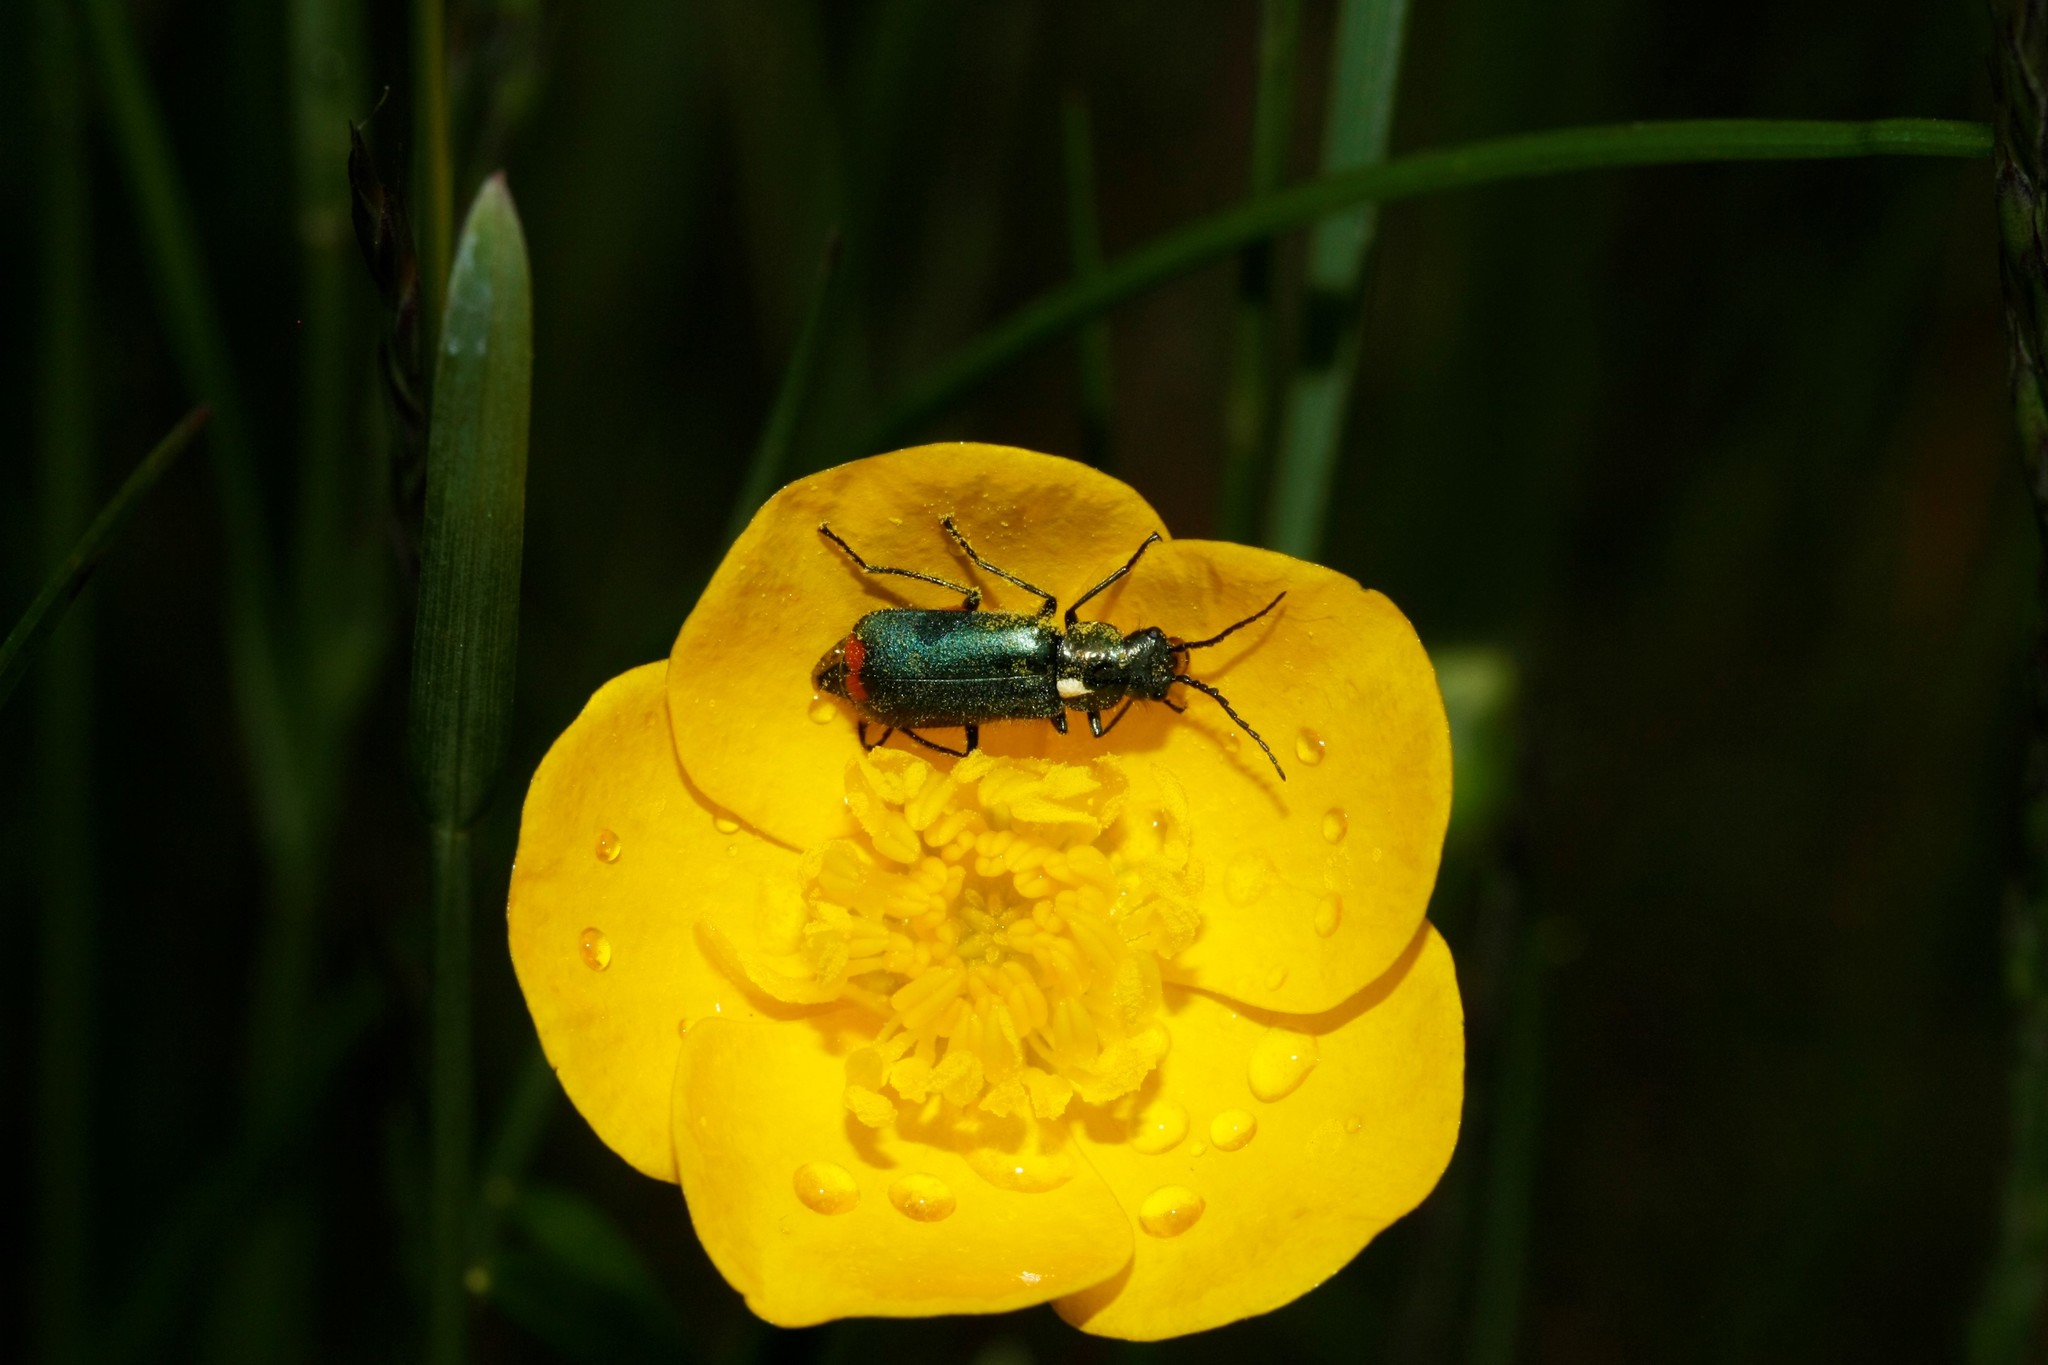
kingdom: Animalia
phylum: Arthropoda
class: Insecta
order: Coleoptera
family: Melyridae
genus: Malachius
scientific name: Malachius bipustulatus
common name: Malachite beetle
